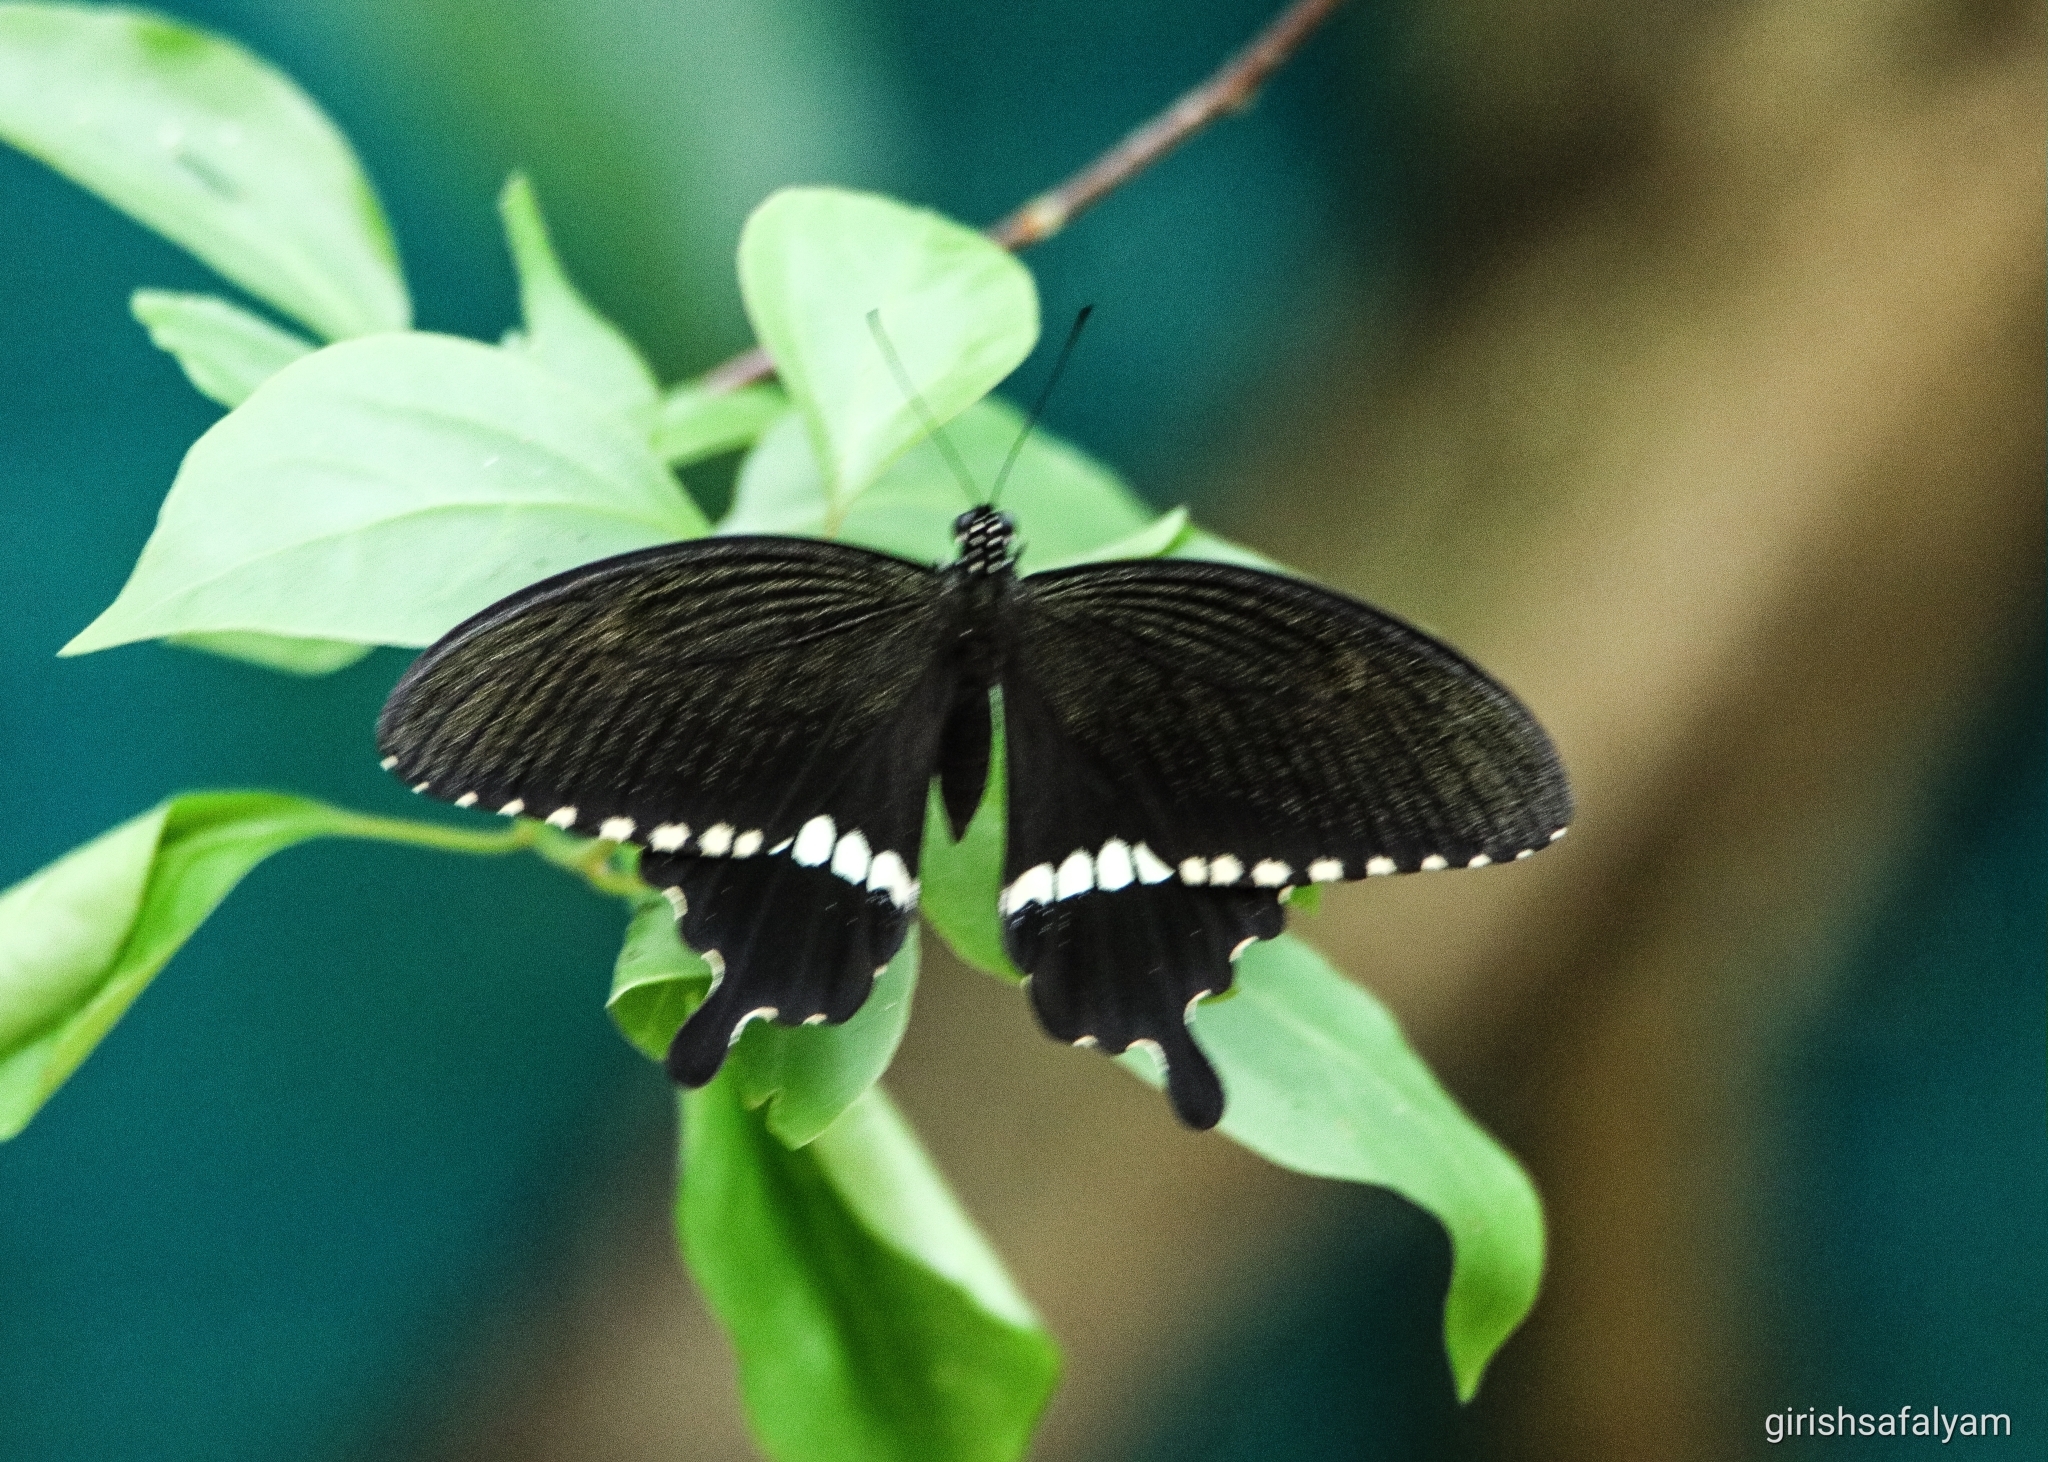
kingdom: Animalia
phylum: Arthropoda
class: Insecta
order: Lepidoptera
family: Papilionidae
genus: Papilio
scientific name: Papilio polytes
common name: Common mormon
